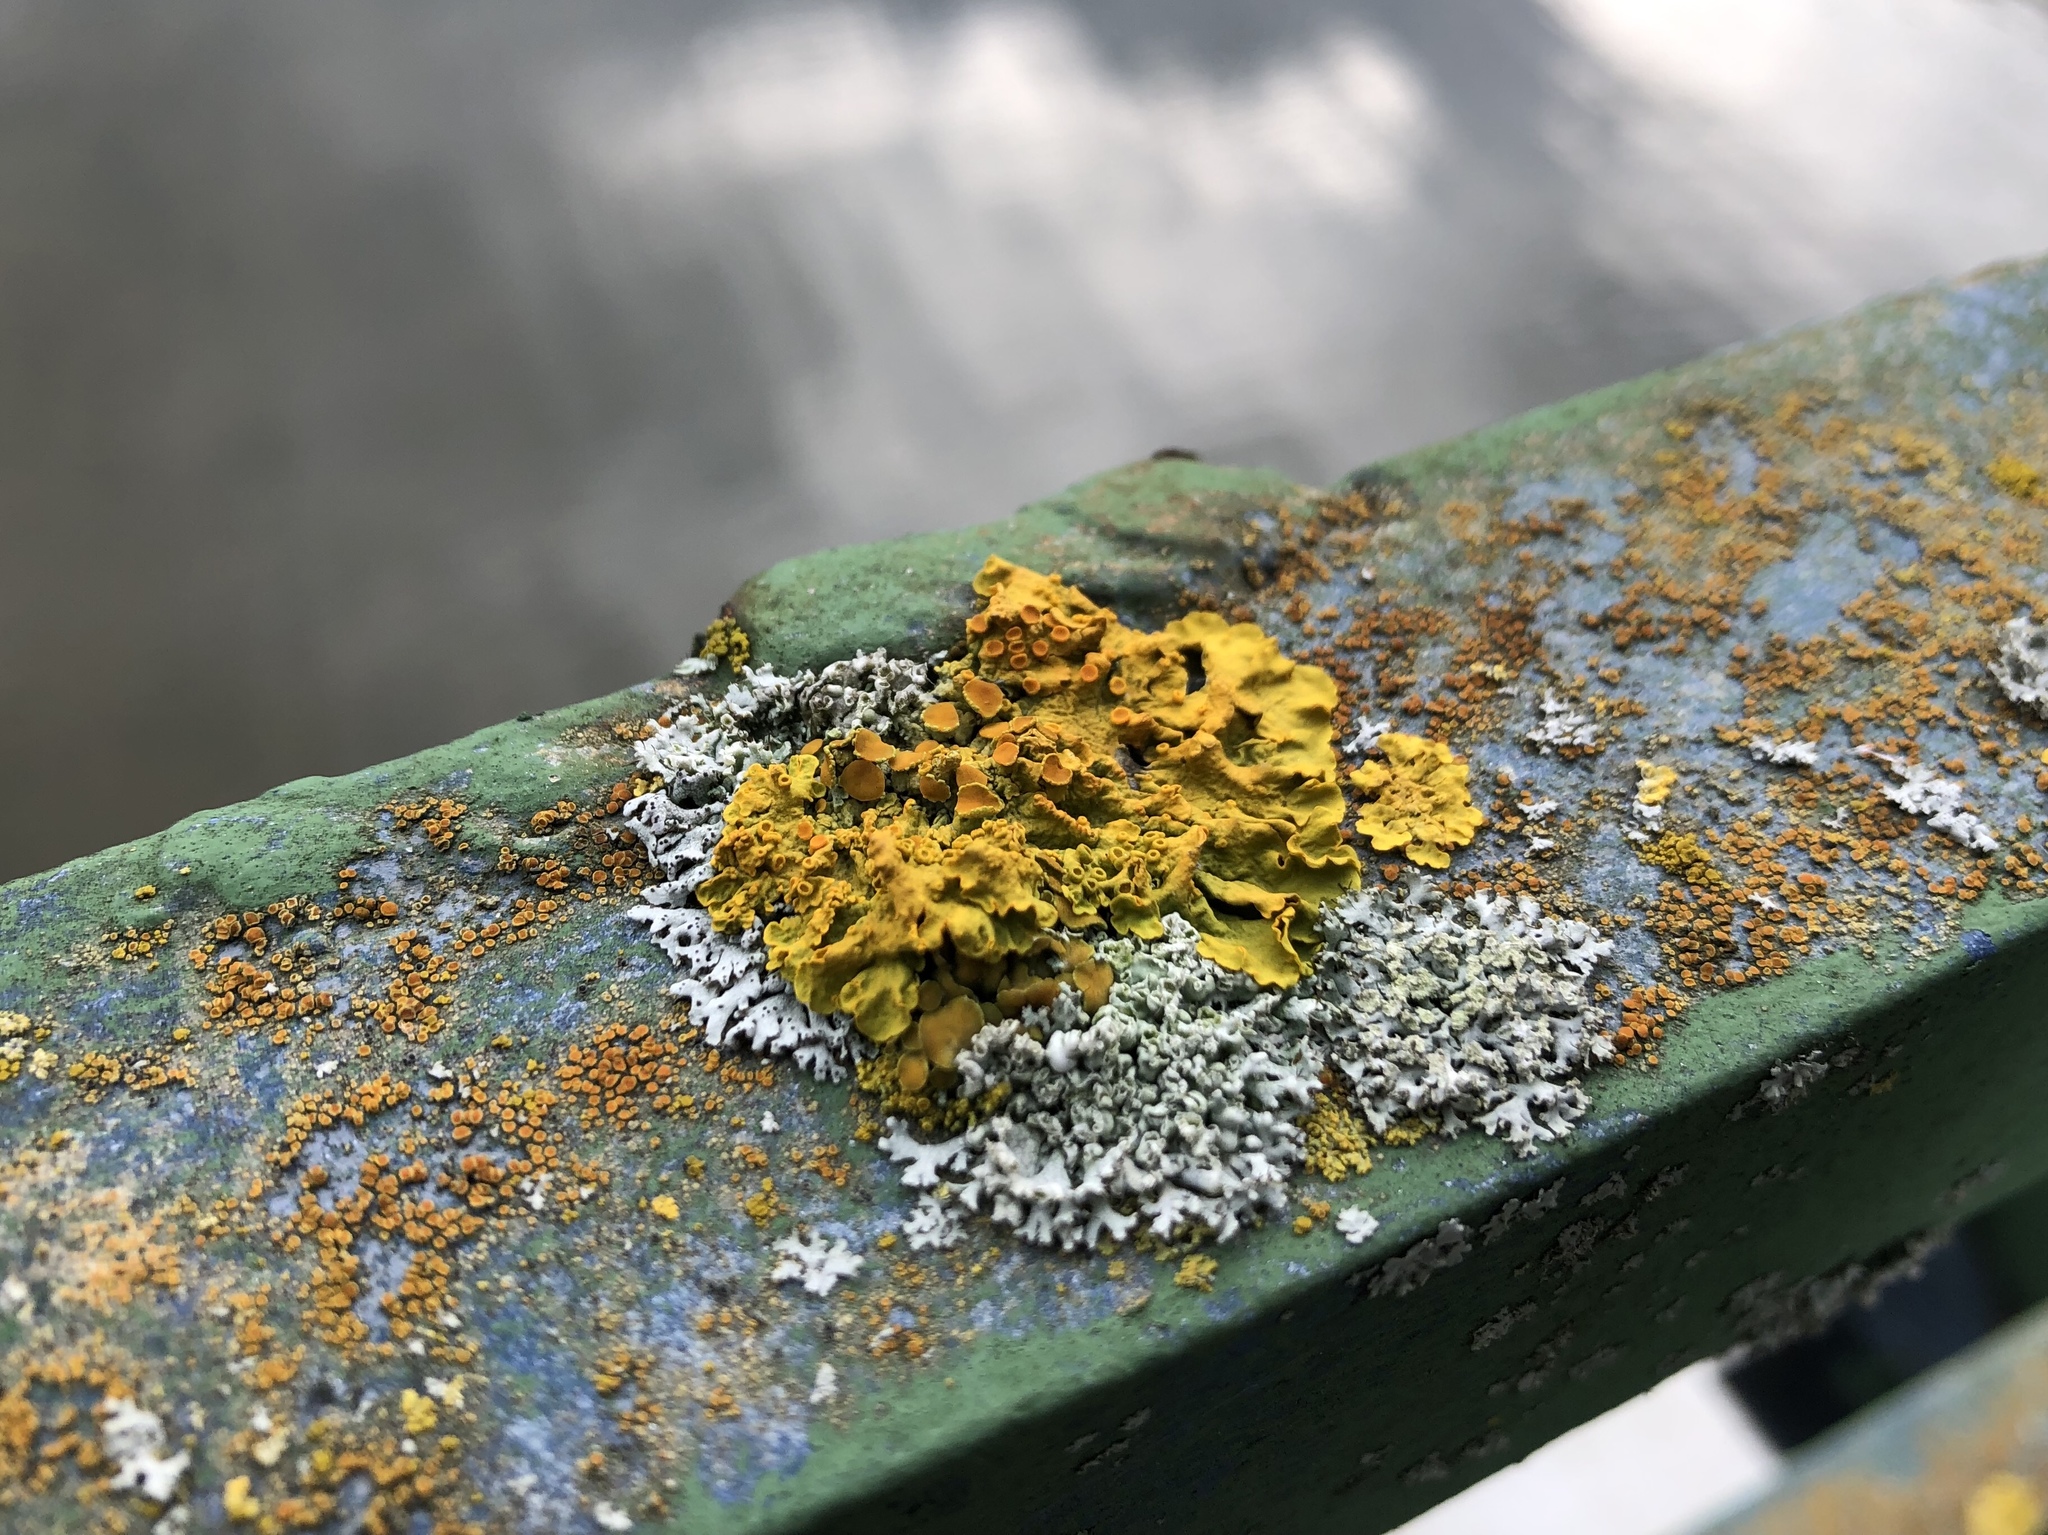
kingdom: Fungi
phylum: Ascomycota
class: Lecanoromycetes
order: Teloschistales
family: Teloschistaceae
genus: Xanthoria
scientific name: Xanthoria parietina
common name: Common orange lichen
